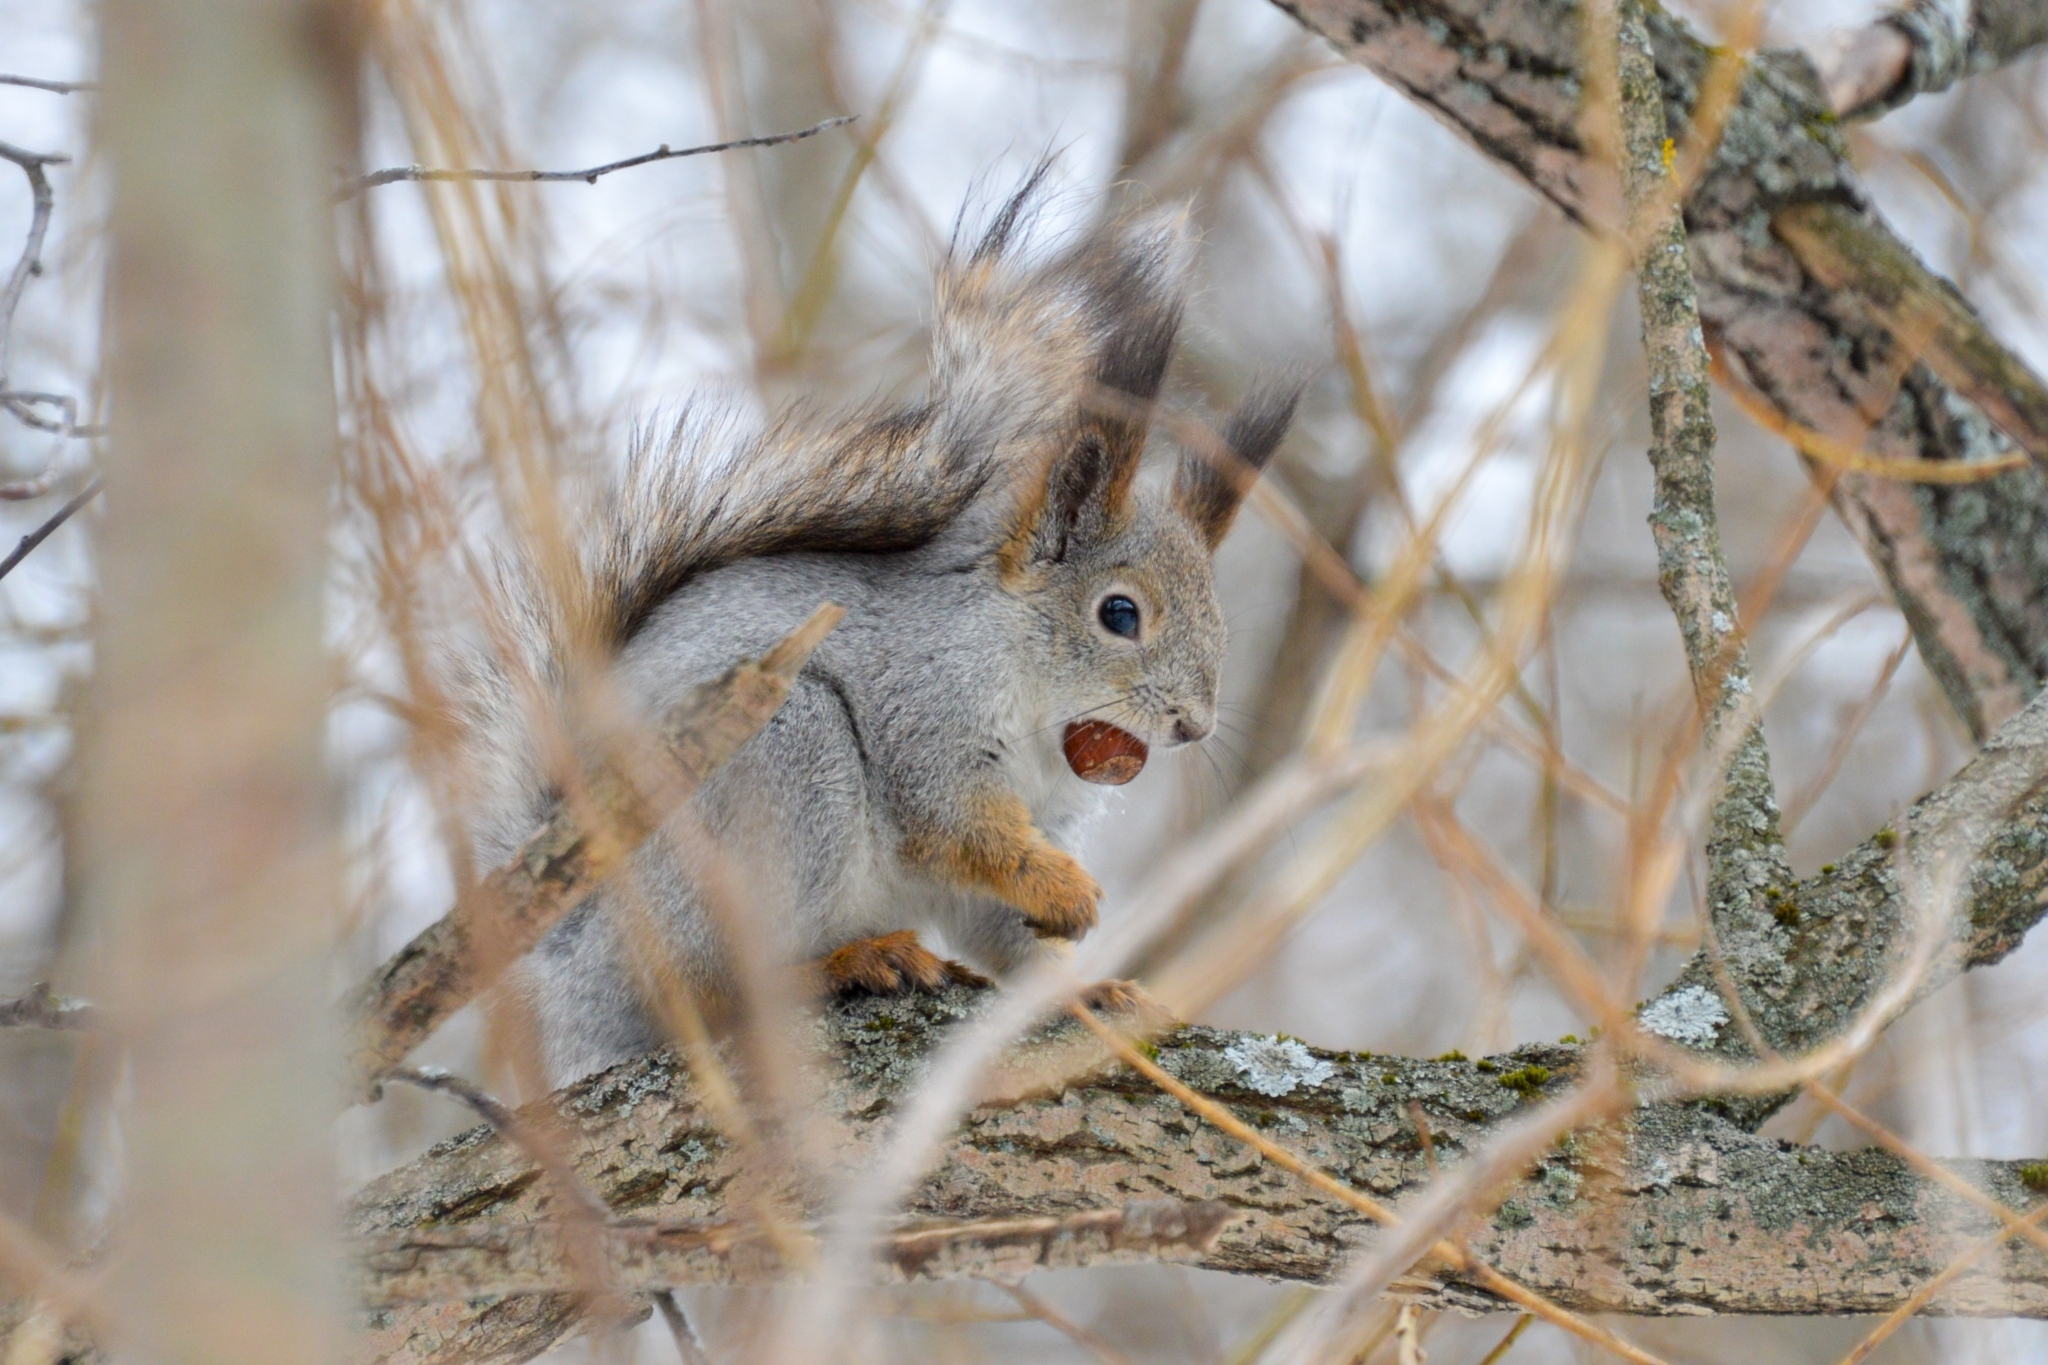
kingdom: Animalia
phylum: Chordata
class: Mammalia
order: Rodentia
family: Sciuridae
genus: Sciurus
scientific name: Sciurus vulgaris
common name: Eurasian red squirrel
